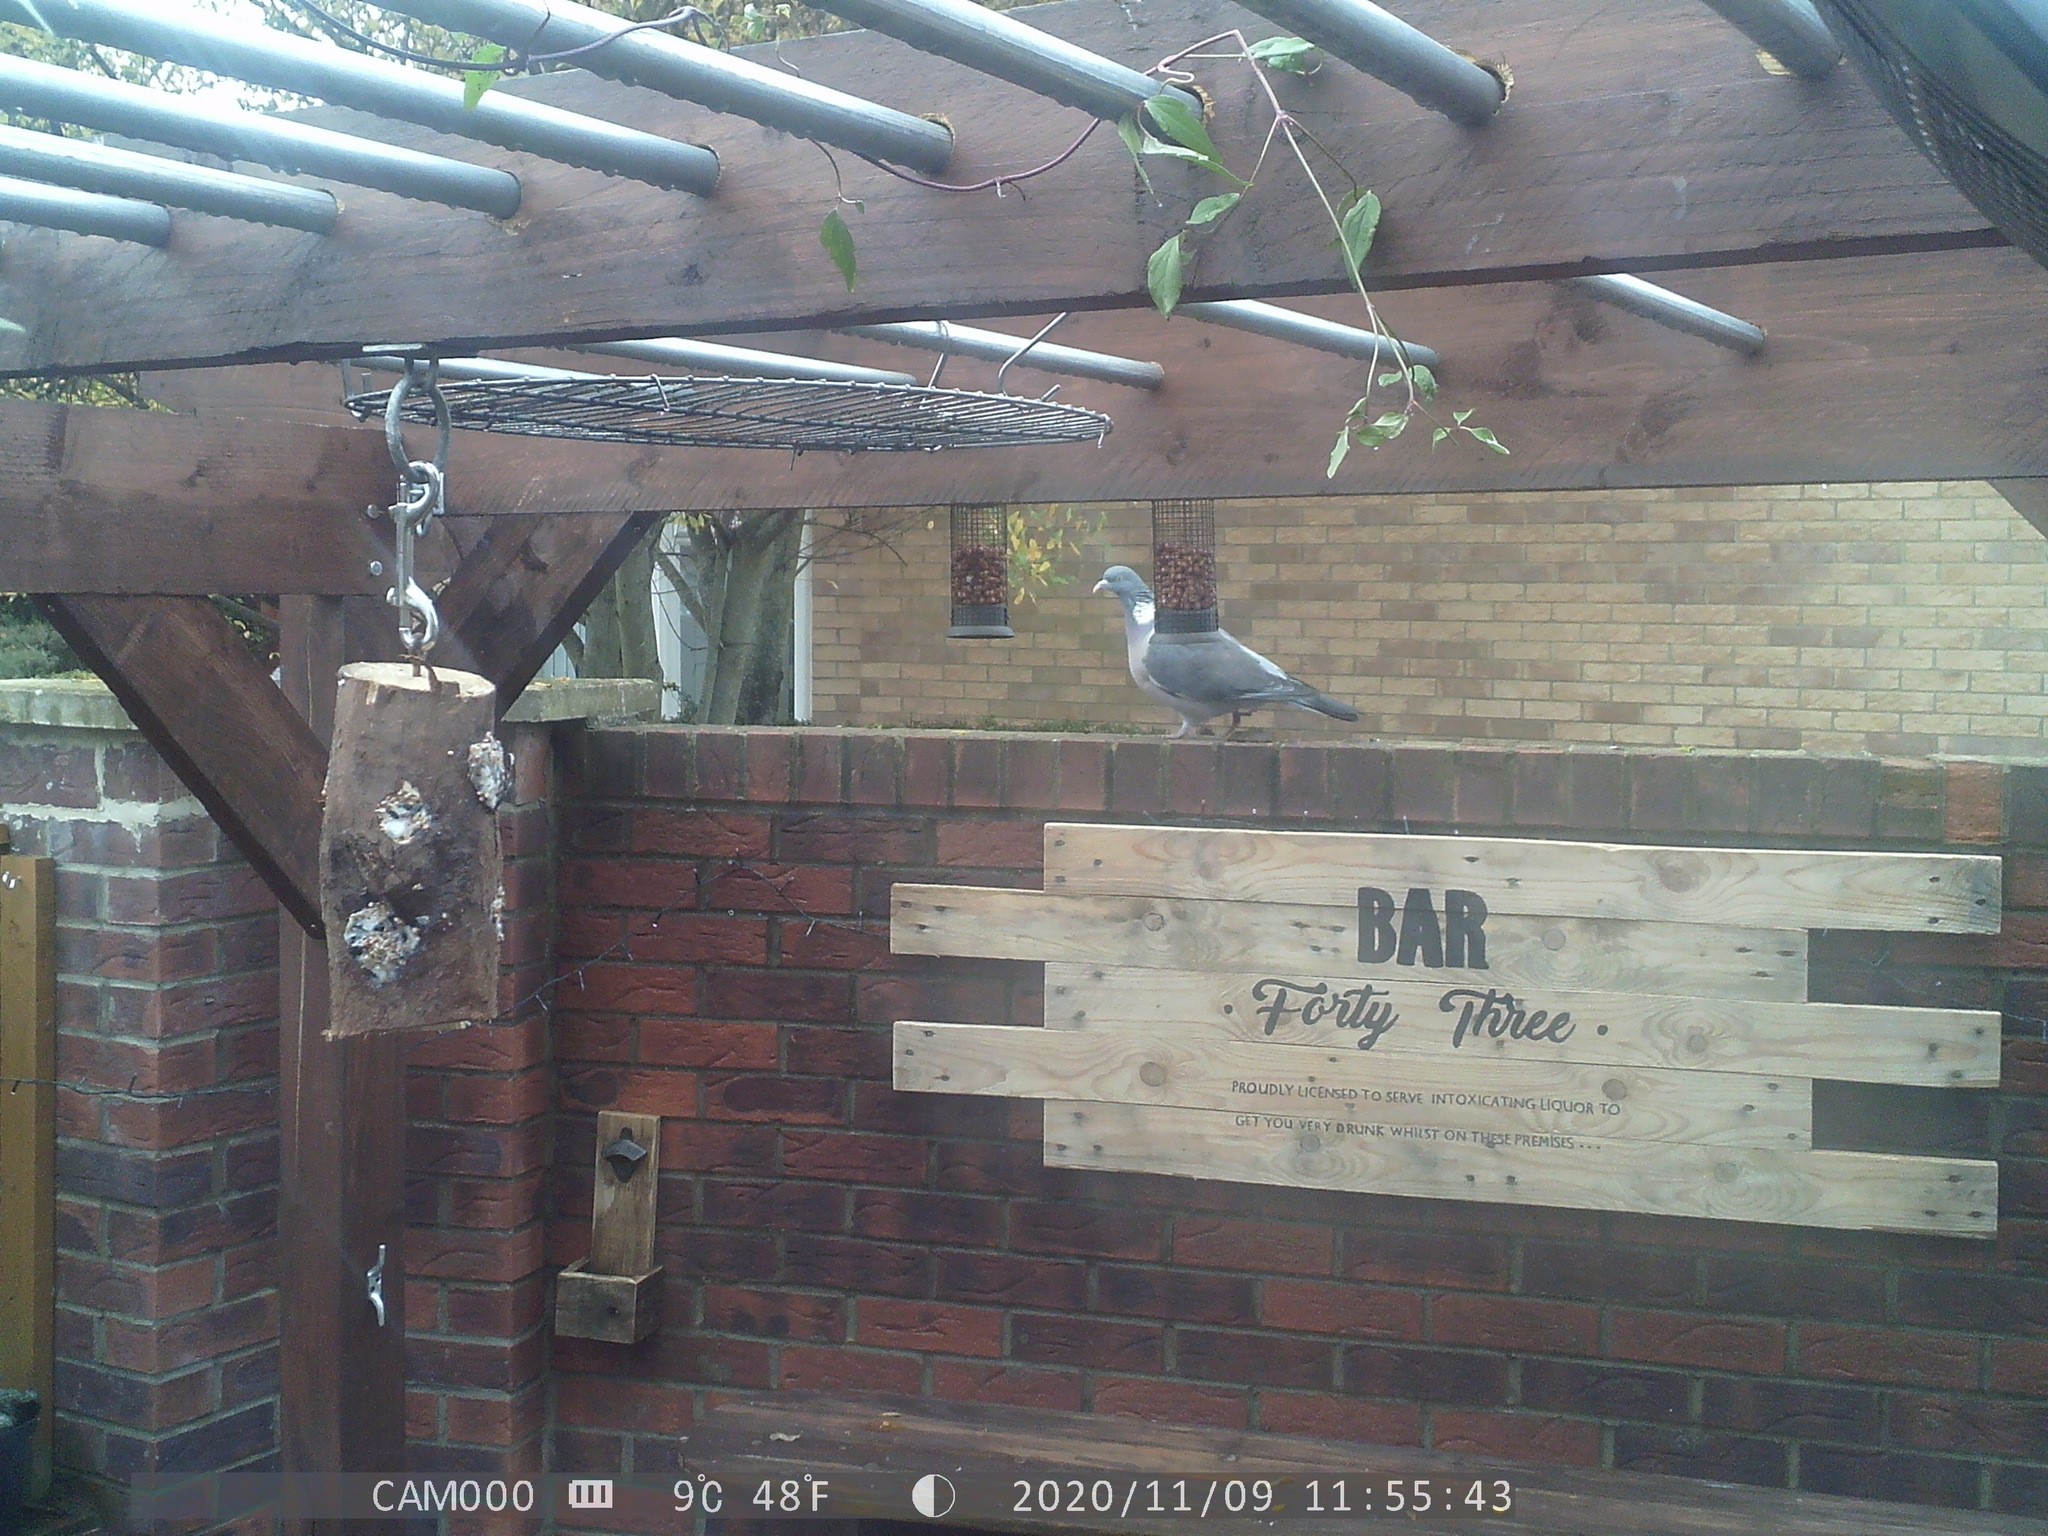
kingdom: Animalia
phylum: Chordata
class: Aves
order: Columbiformes
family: Columbidae
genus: Columba
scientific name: Columba palumbus
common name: Common wood pigeon
